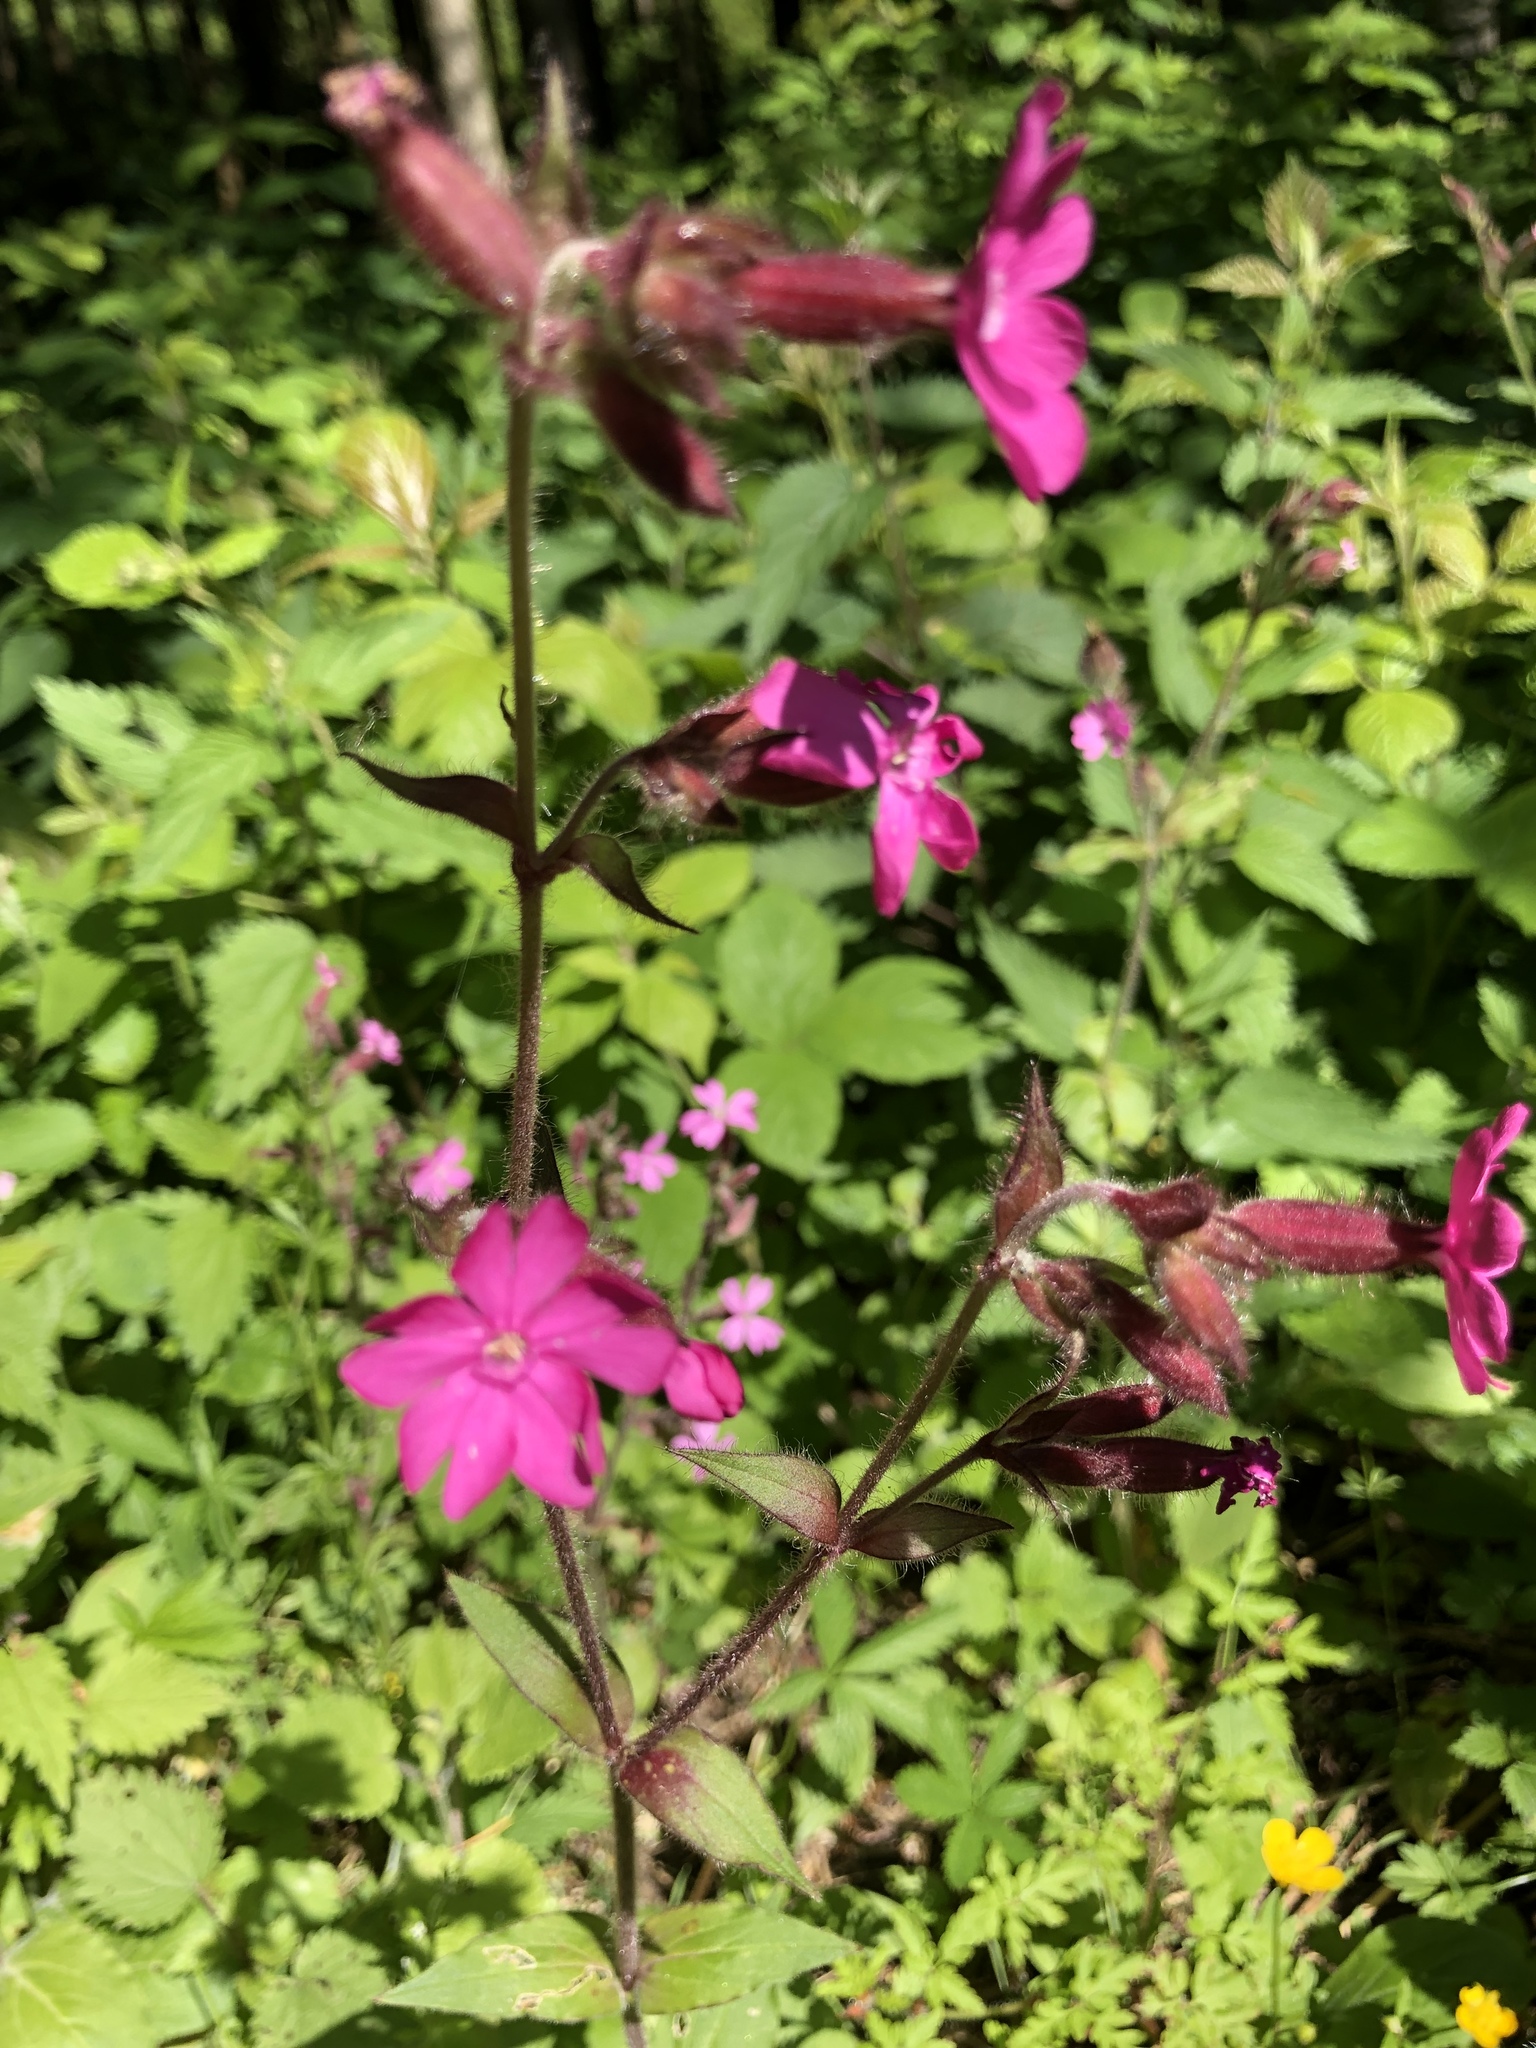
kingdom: Plantae
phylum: Tracheophyta
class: Magnoliopsida
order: Caryophyllales
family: Caryophyllaceae
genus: Silene
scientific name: Silene dioica
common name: Red campion
